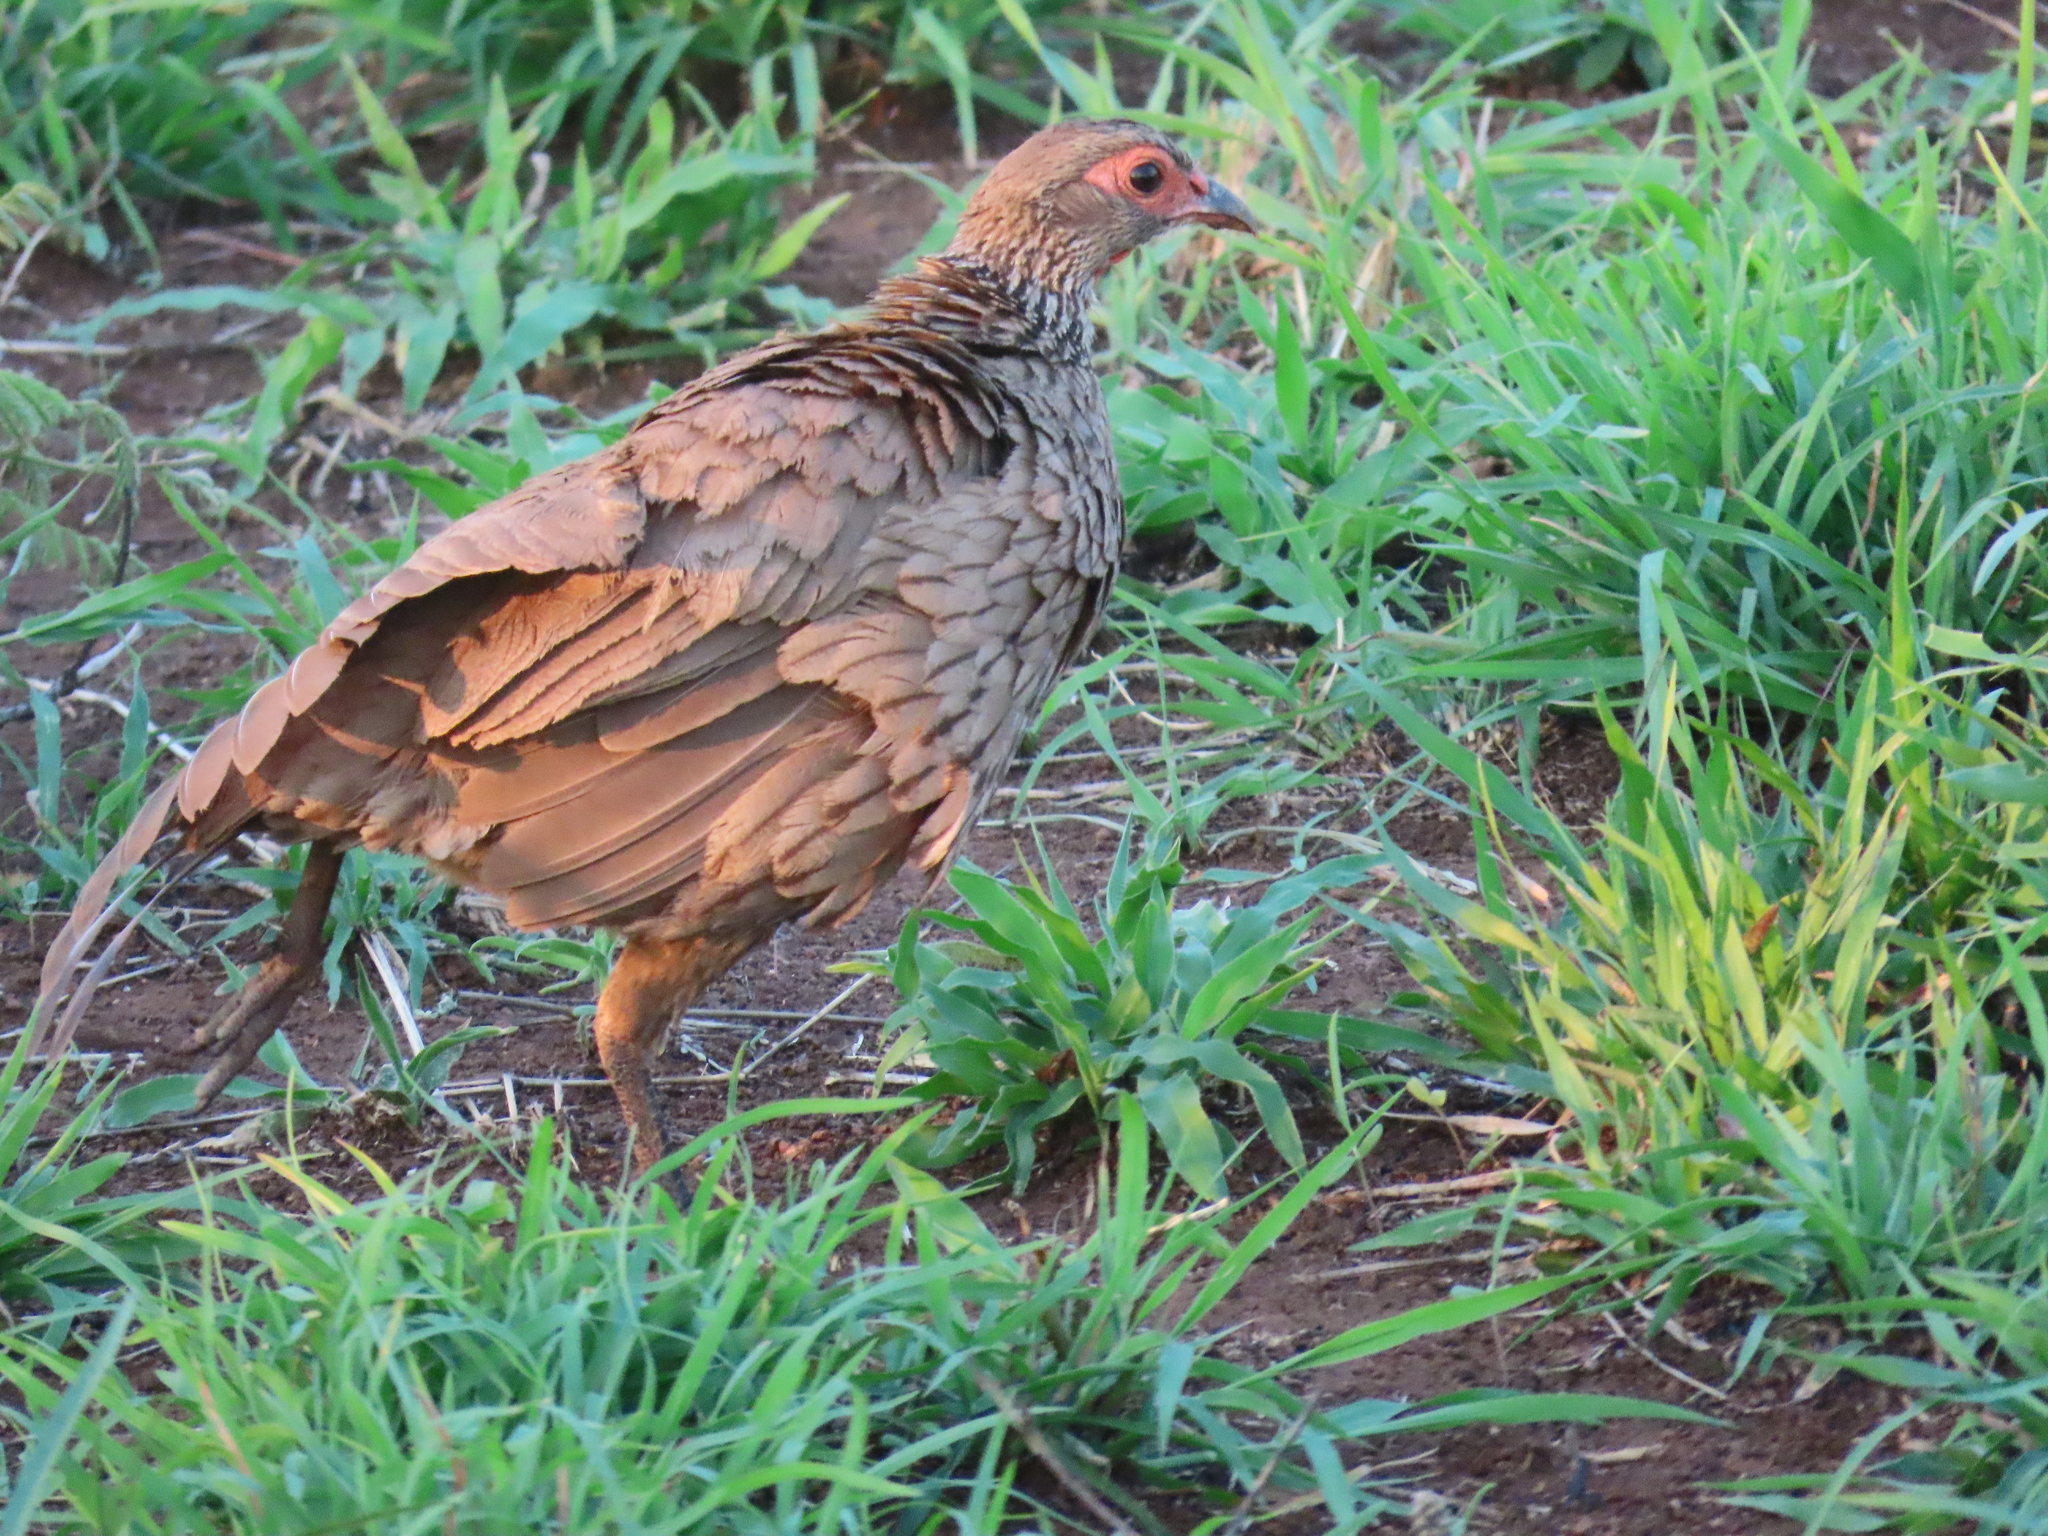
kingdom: Animalia
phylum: Chordata
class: Aves
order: Galliformes
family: Phasianidae
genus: Pternistis
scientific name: Pternistis swainsonii
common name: Swainson's spurfowl
